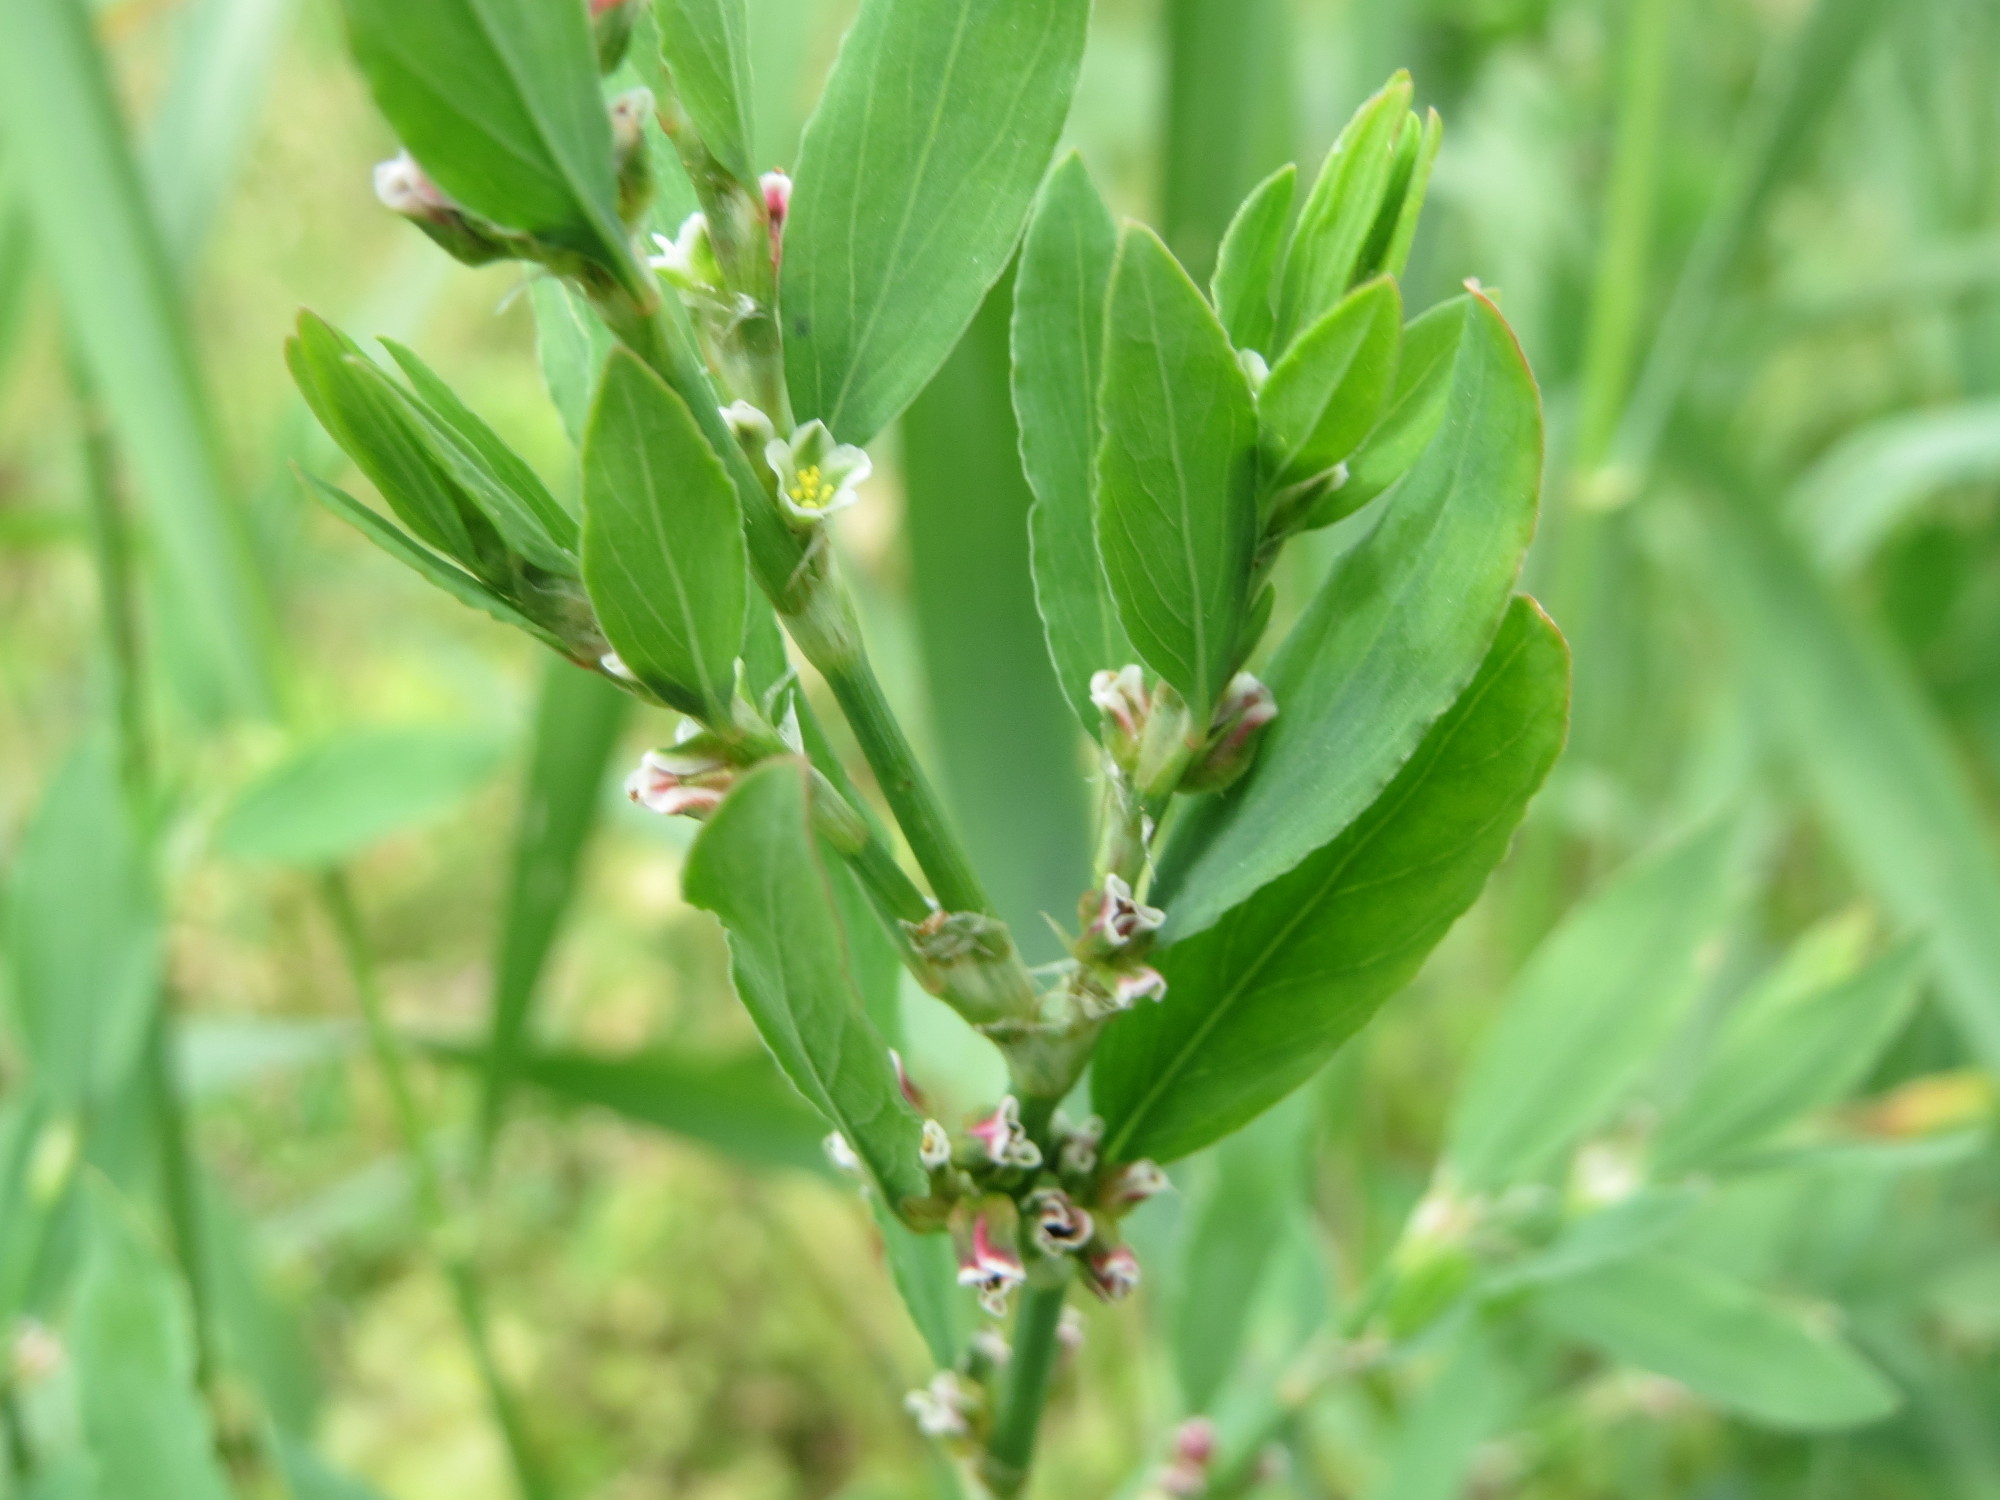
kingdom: Plantae
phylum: Tracheophyta
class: Magnoliopsida
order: Caryophyllales
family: Polygonaceae
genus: Polygonum
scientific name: Polygonum aviculare
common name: Prostrate knotweed
